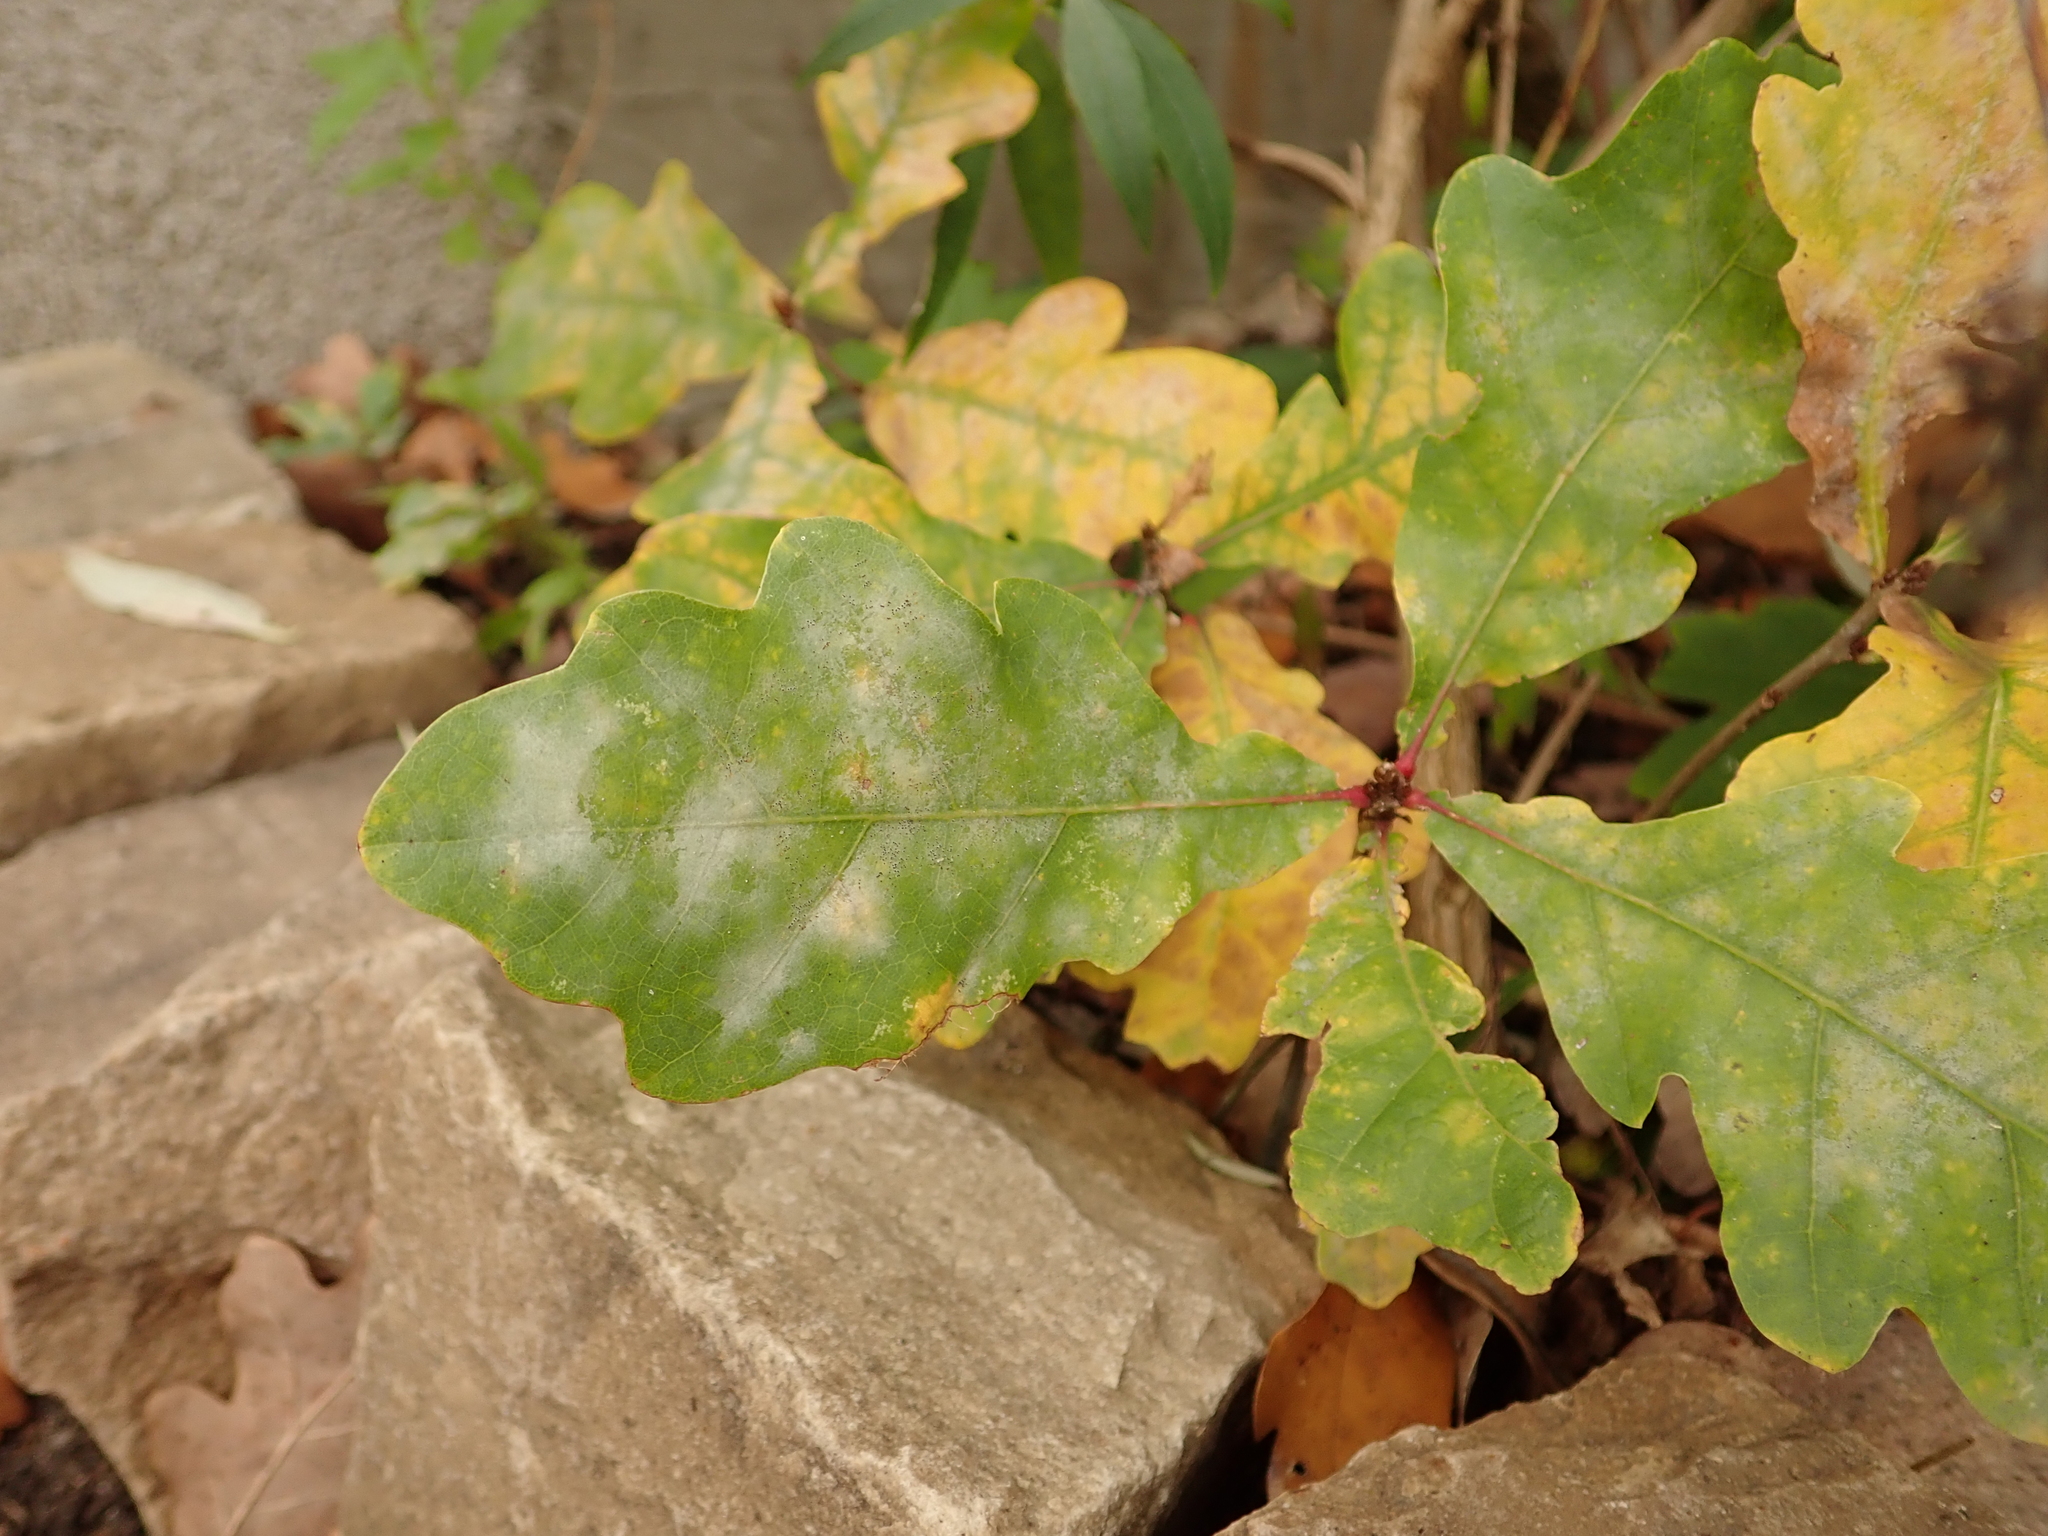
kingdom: Plantae
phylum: Tracheophyta
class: Magnoliopsida
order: Fagales
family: Fagaceae
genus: Quercus
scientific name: Quercus robur
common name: Pedunculate oak
